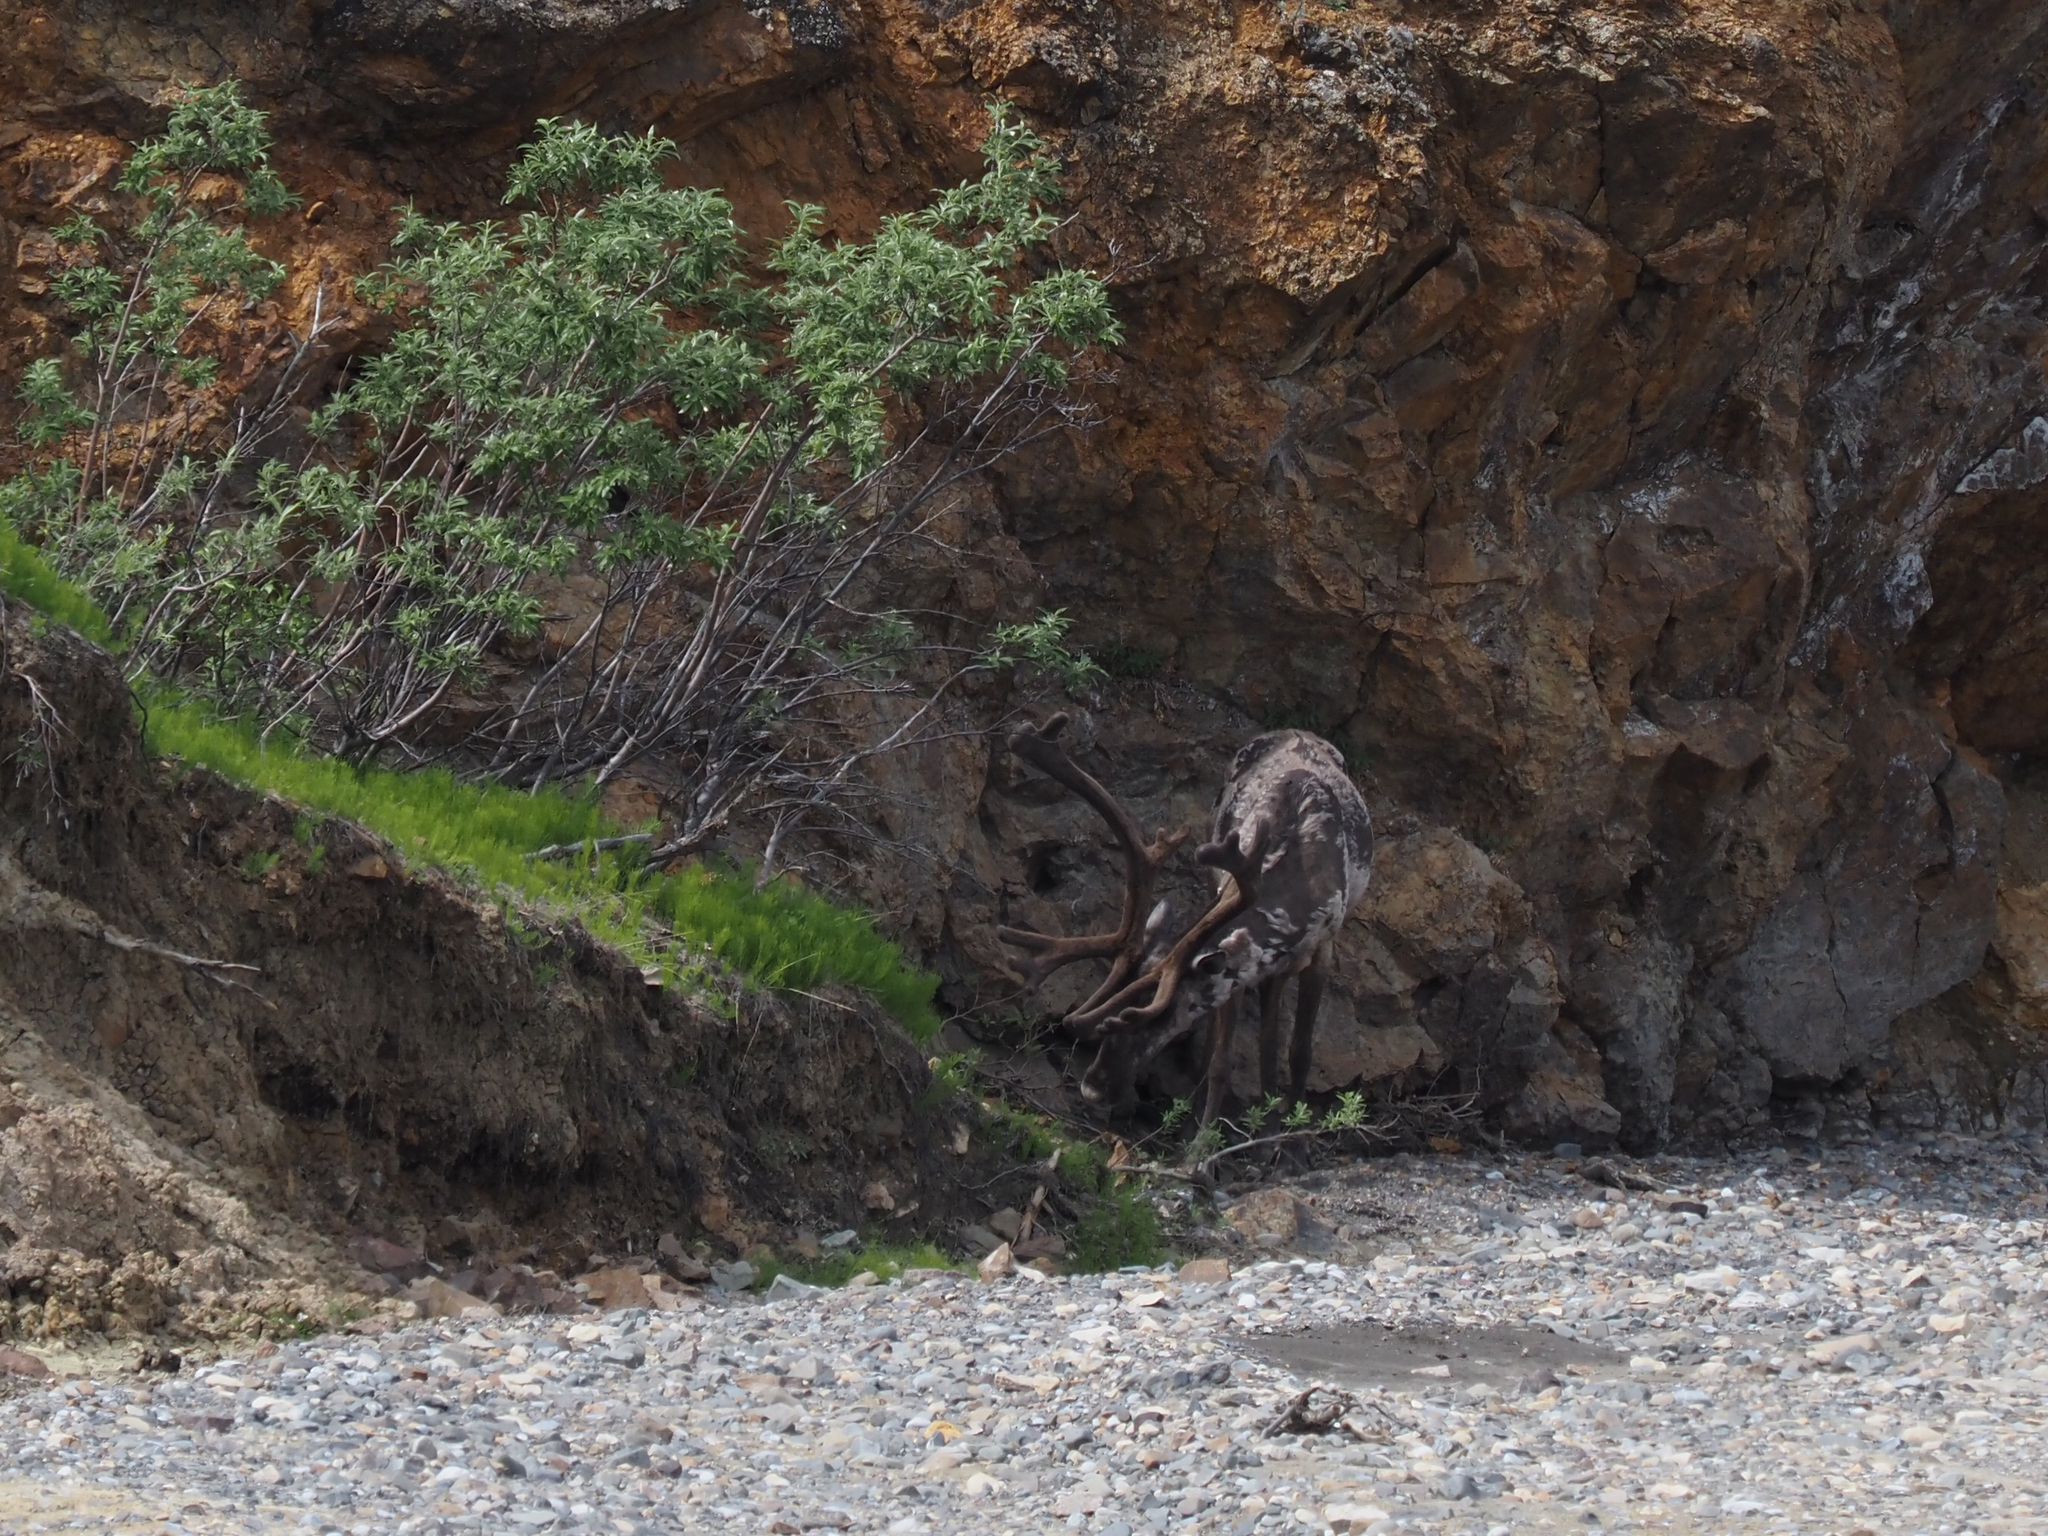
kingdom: Animalia
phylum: Chordata
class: Mammalia
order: Artiodactyla
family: Cervidae
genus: Rangifer
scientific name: Rangifer tarandus
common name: Reindeer
